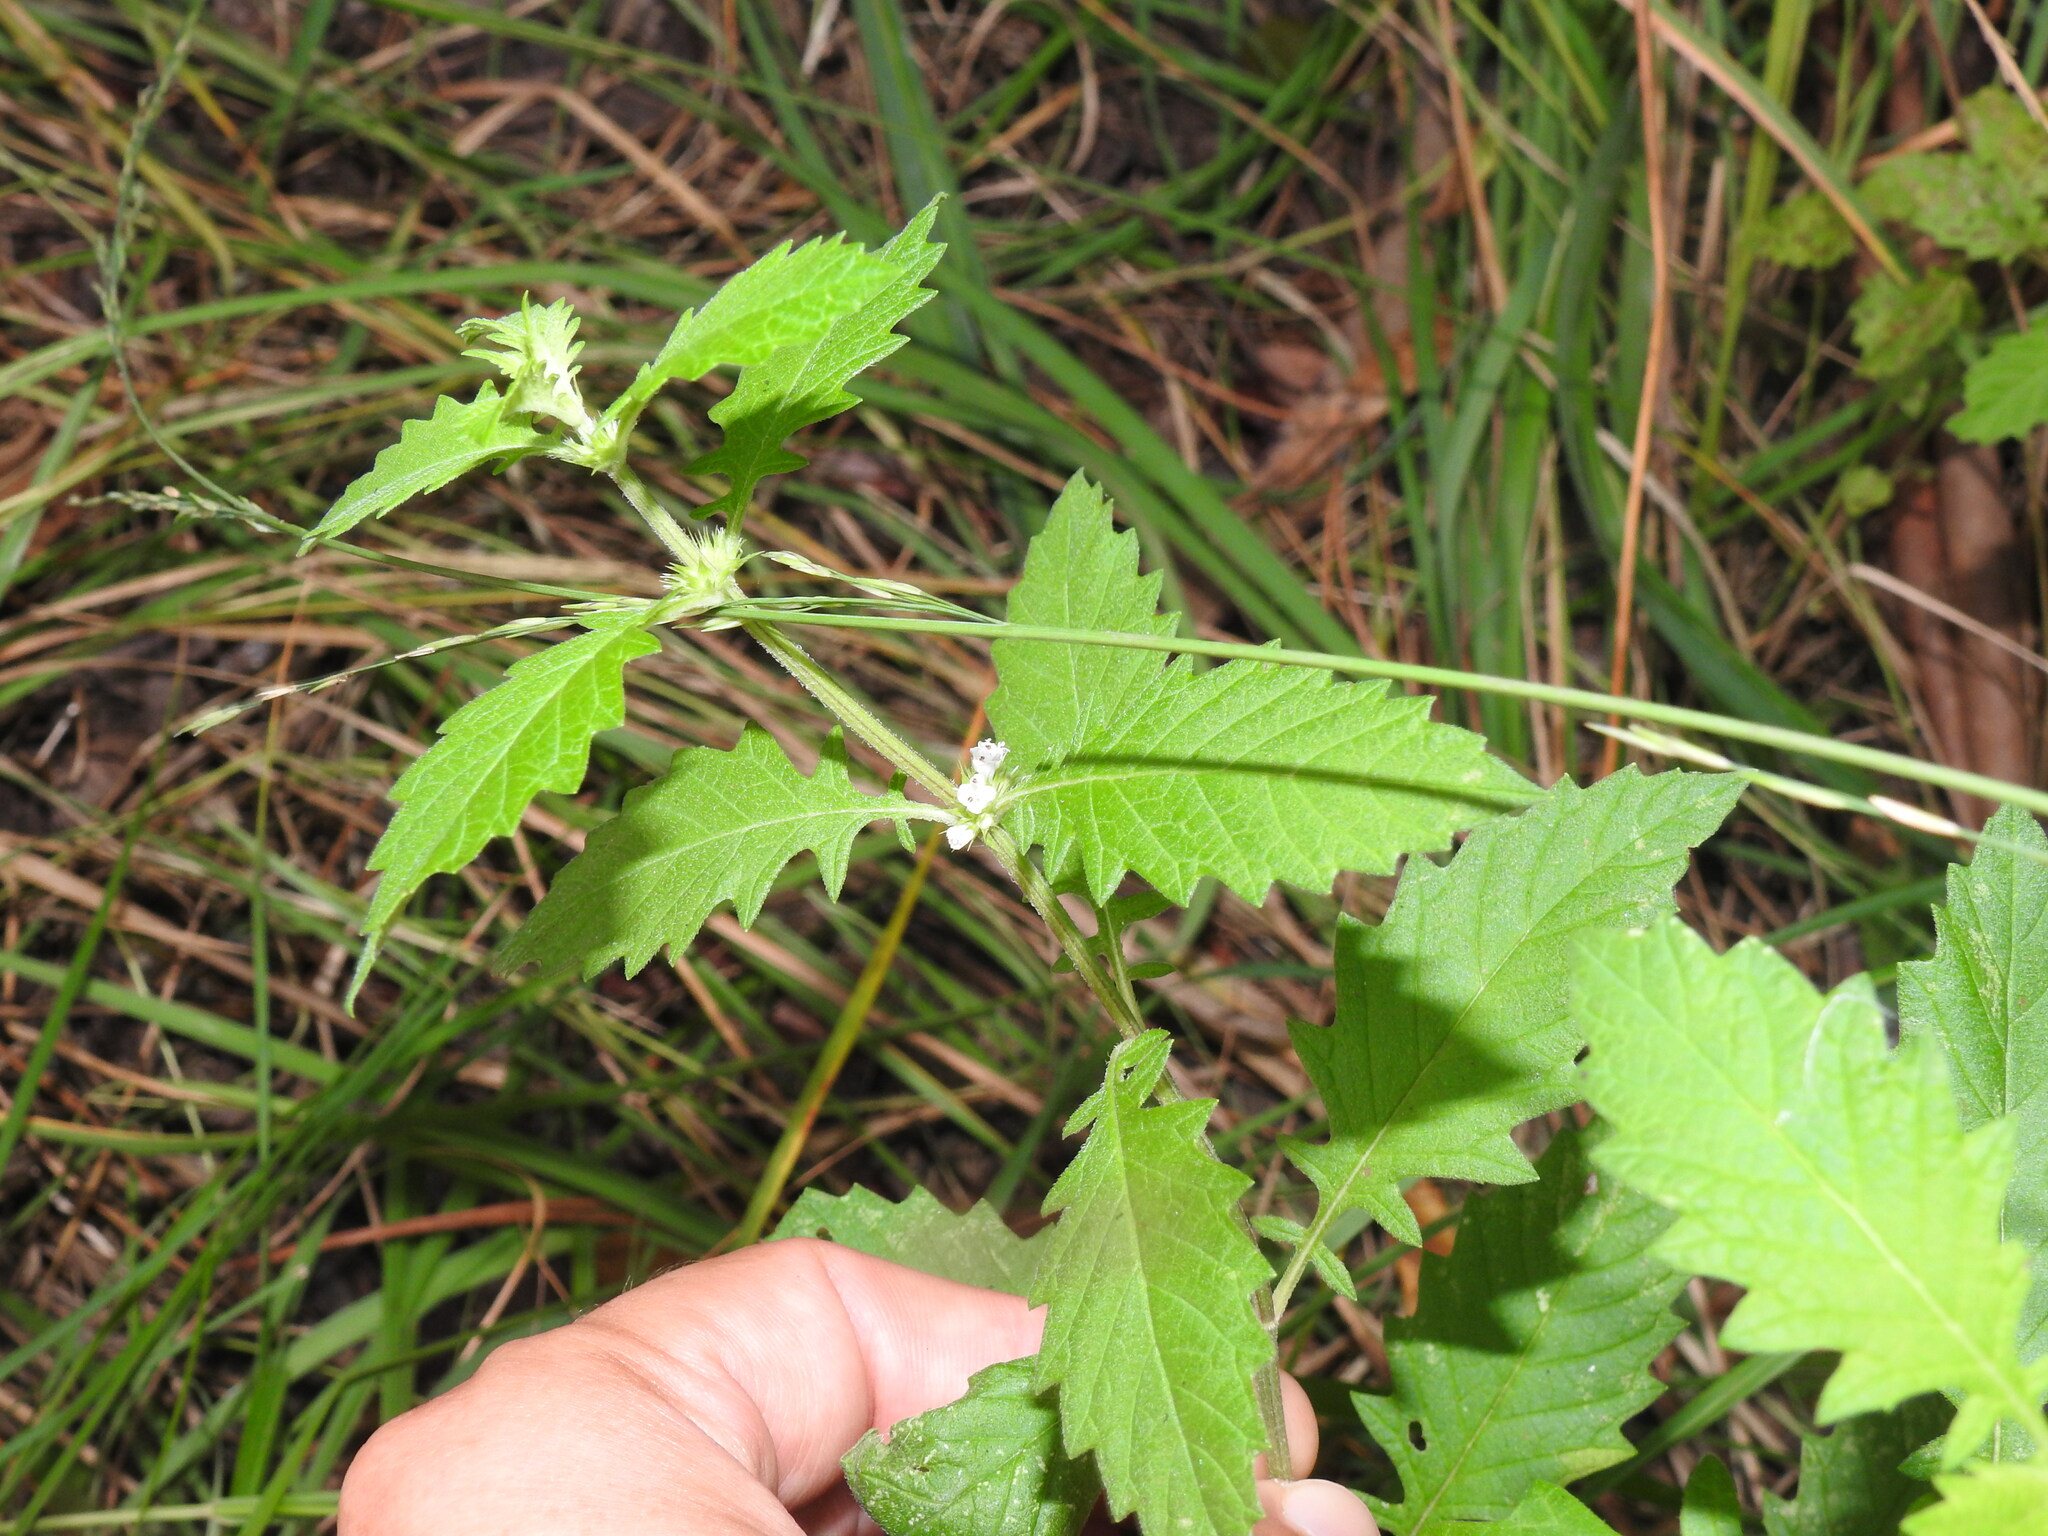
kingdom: Plantae
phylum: Tracheophyta
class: Magnoliopsida
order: Lamiales
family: Lamiaceae
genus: Lycopus
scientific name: Lycopus europaeus
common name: European bugleweed
